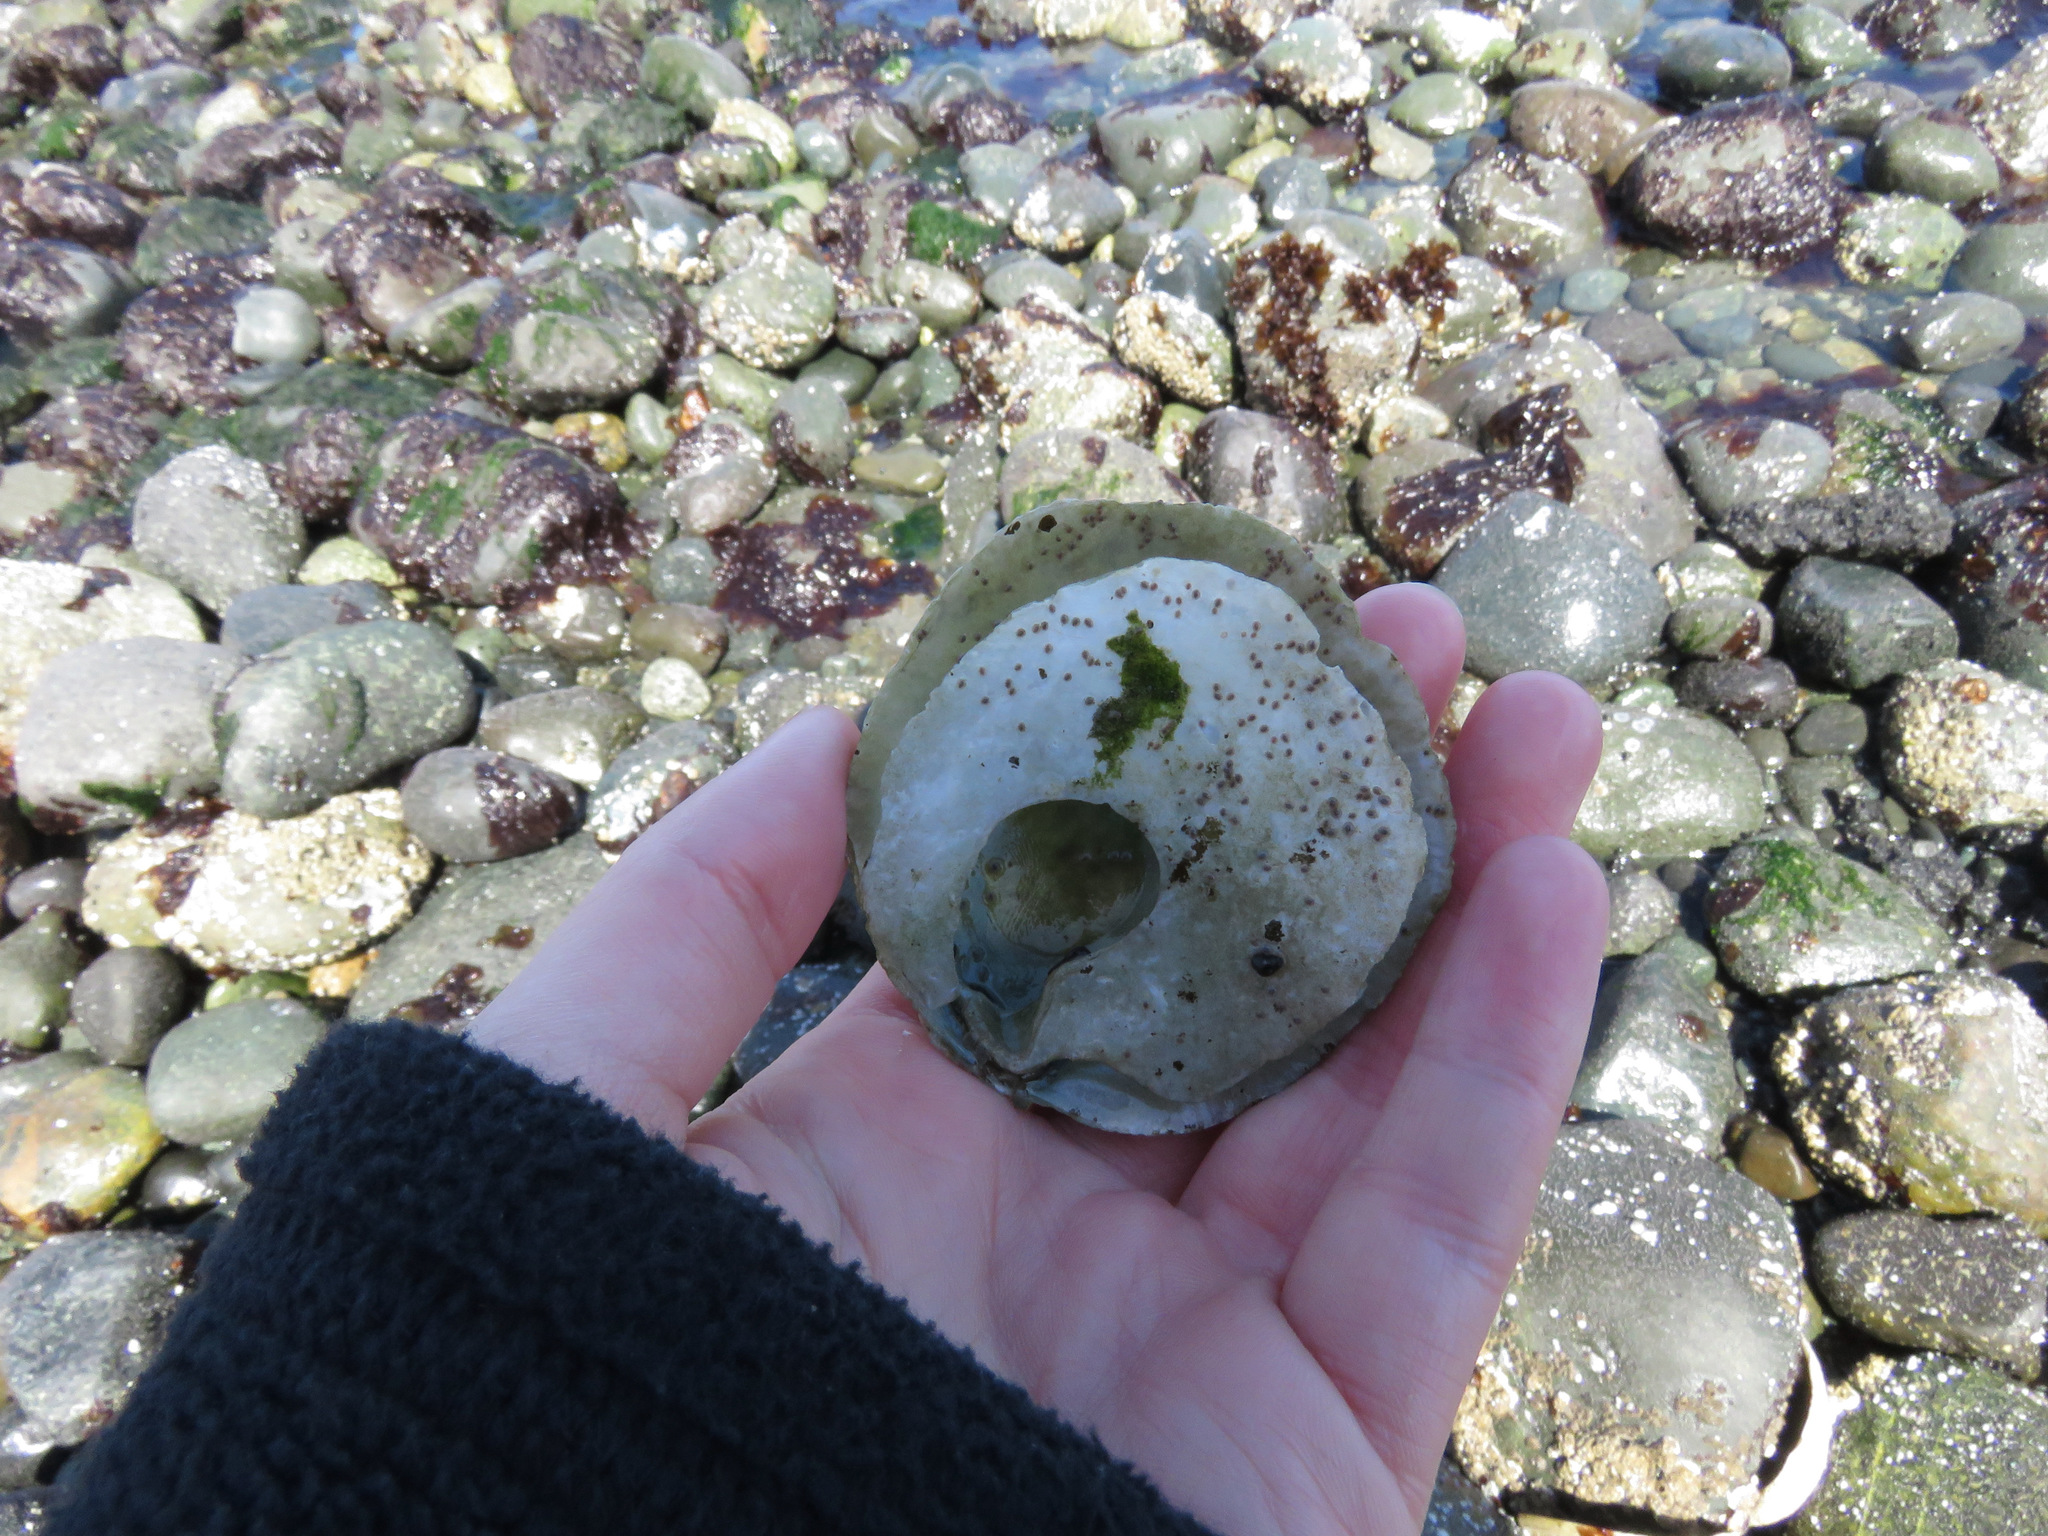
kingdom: Animalia
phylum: Mollusca
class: Bivalvia
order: Pectinida
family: Anomiidae
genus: Pododesmus
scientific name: Pododesmus macrochisma
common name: Alaska jingle
